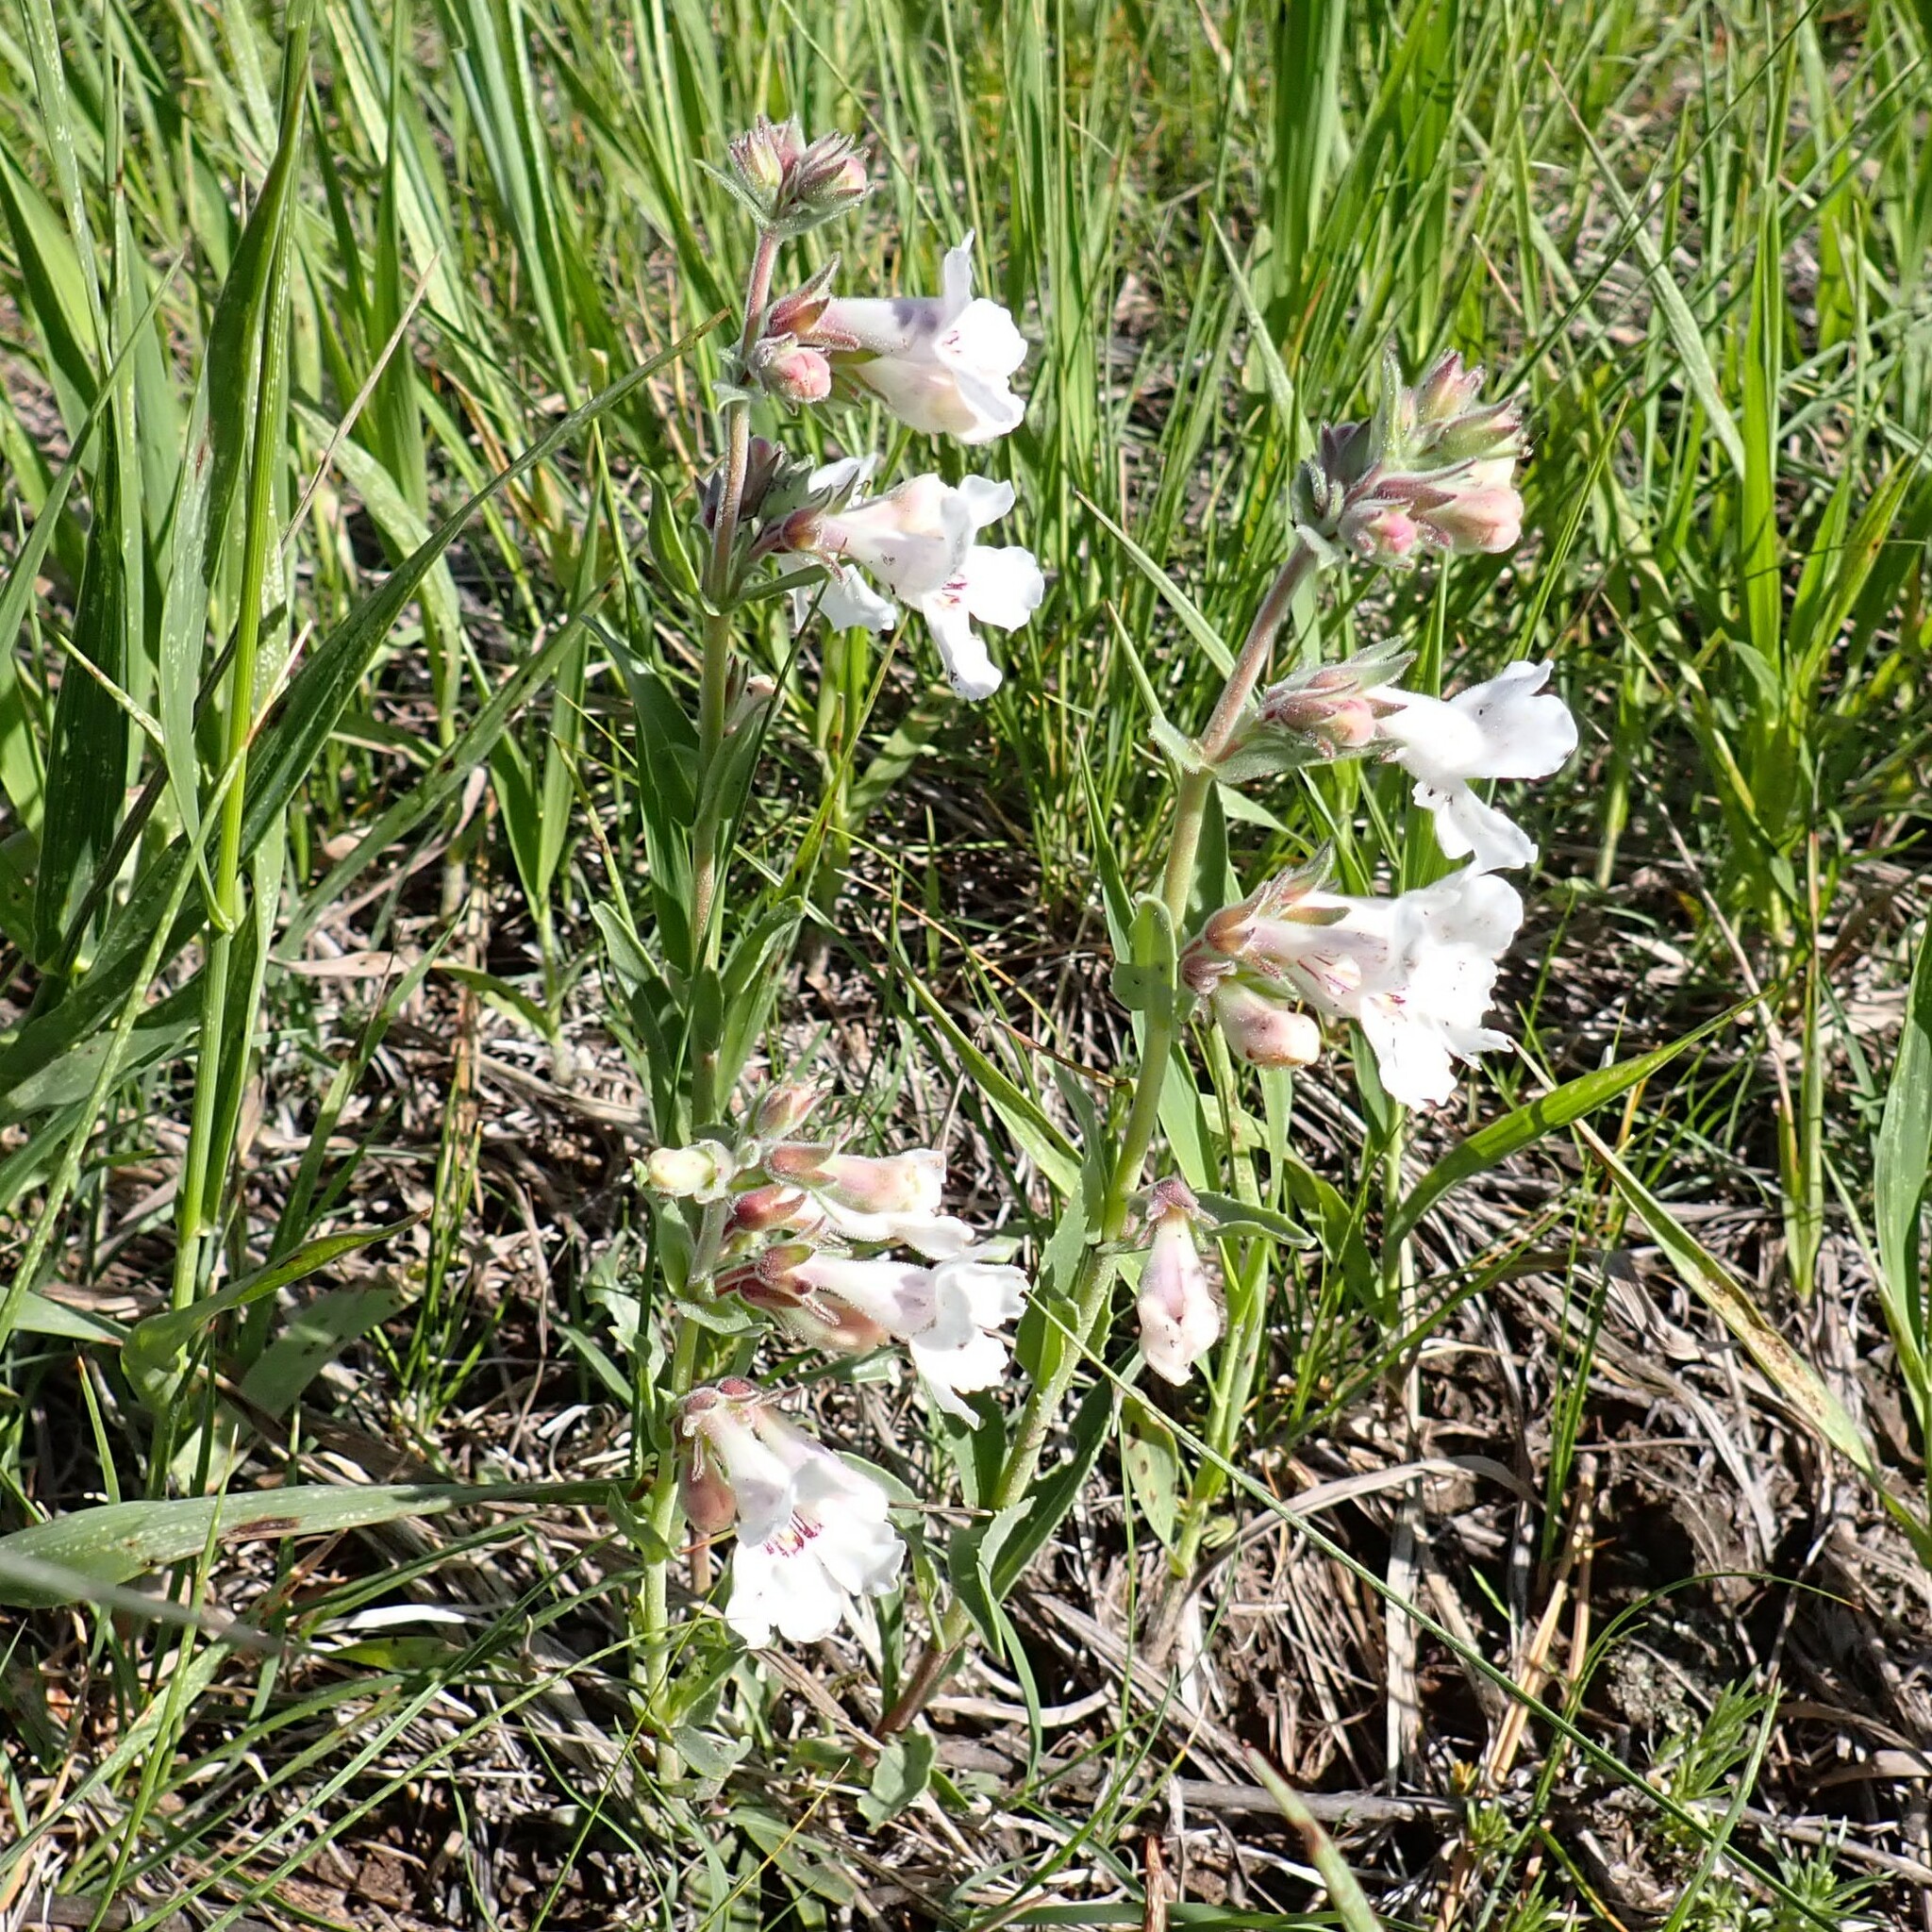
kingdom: Plantae
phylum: Tracheophyta
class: Magnoliopsida
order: Lamiales
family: Plantaginaceae
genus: Penstemon
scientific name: Penstemon albidus
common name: White beardtongue
